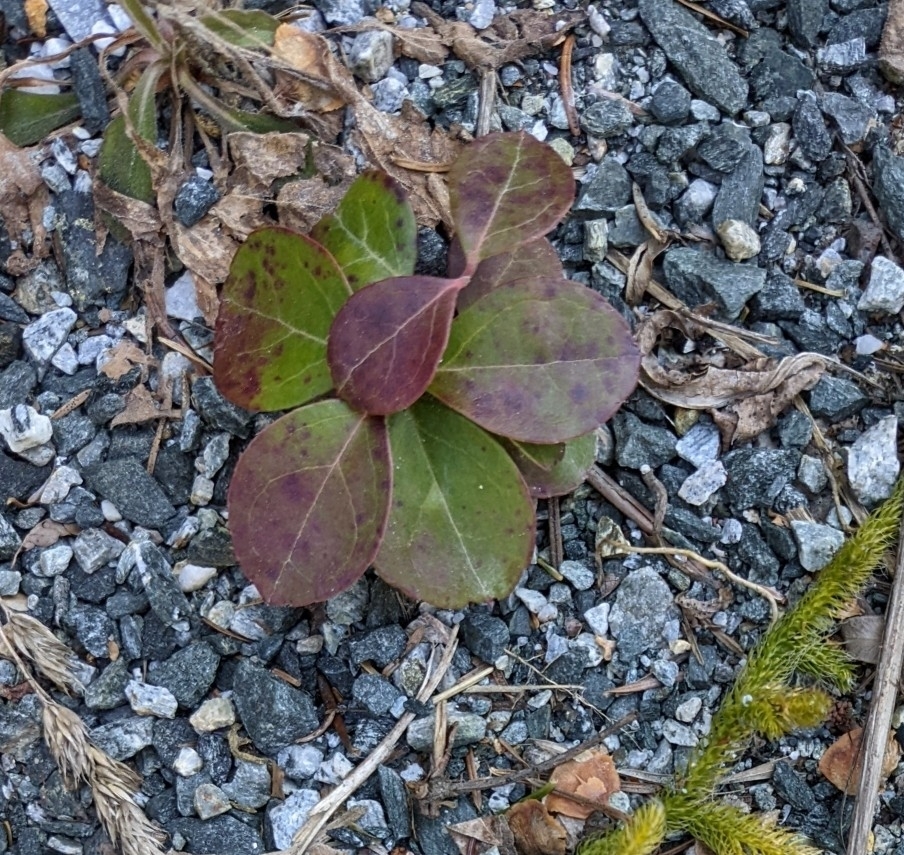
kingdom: Plantae
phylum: Tracheophyta
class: Magnoliopsida
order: Ericales
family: Ericaceae
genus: Gaultheria
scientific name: Gaultheria procumbens
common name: Checkerberry
